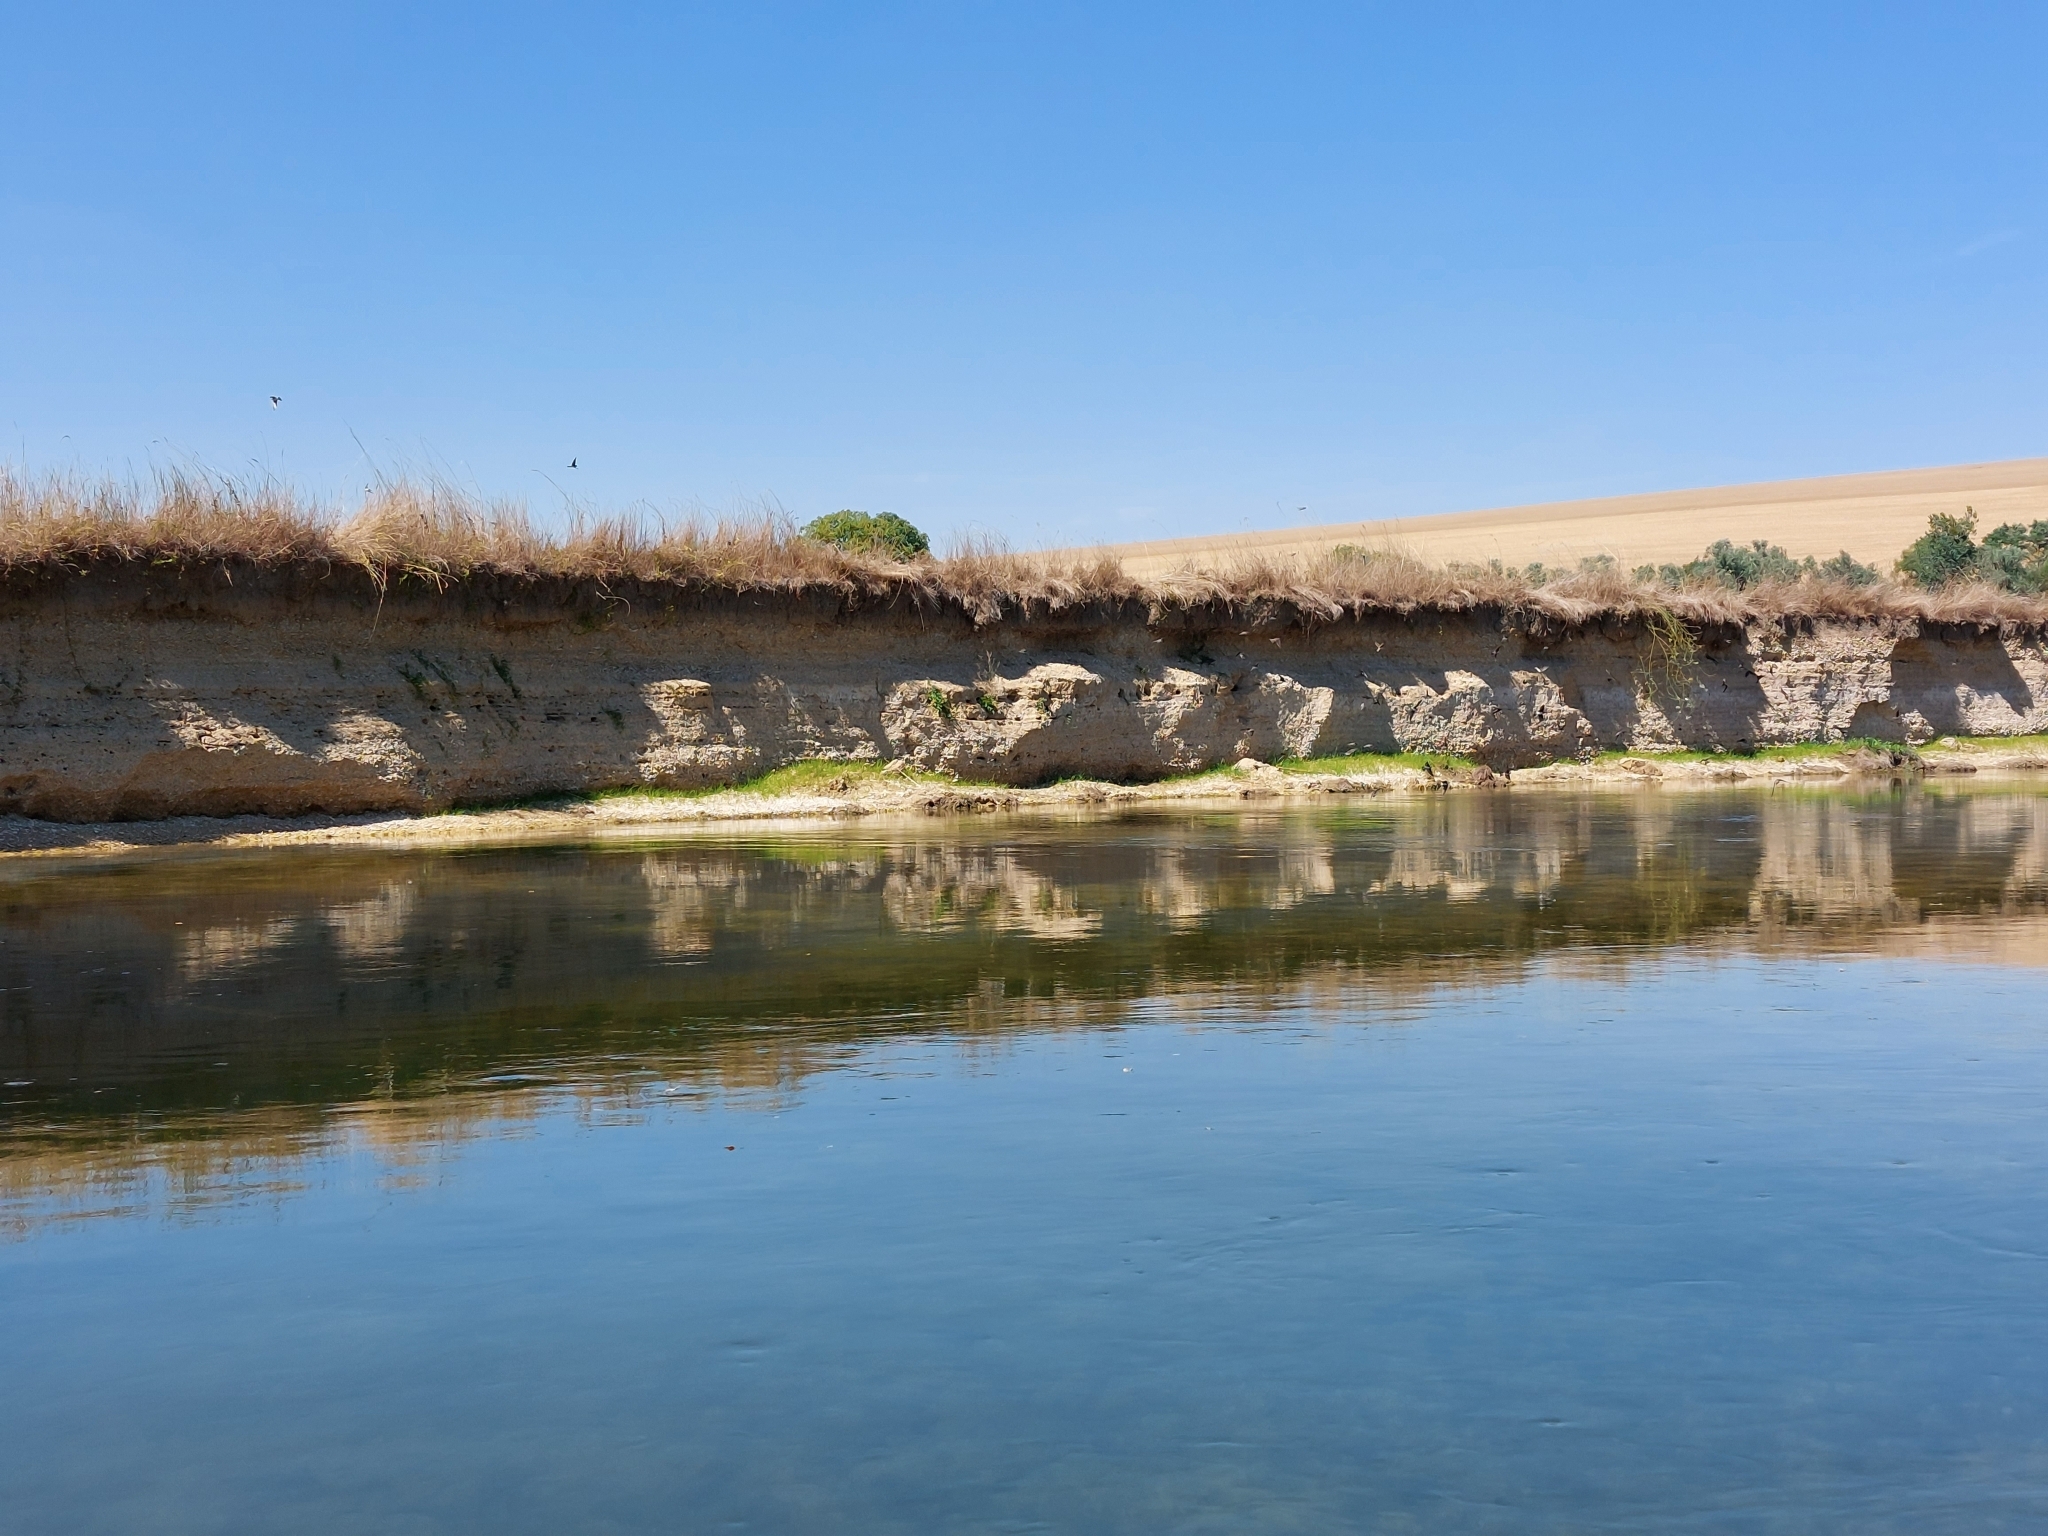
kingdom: Animalia
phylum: Chordata
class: Aves
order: Passeriformes
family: Hirundinidae
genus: Riparia
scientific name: Riparia riparia
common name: Sand martin
